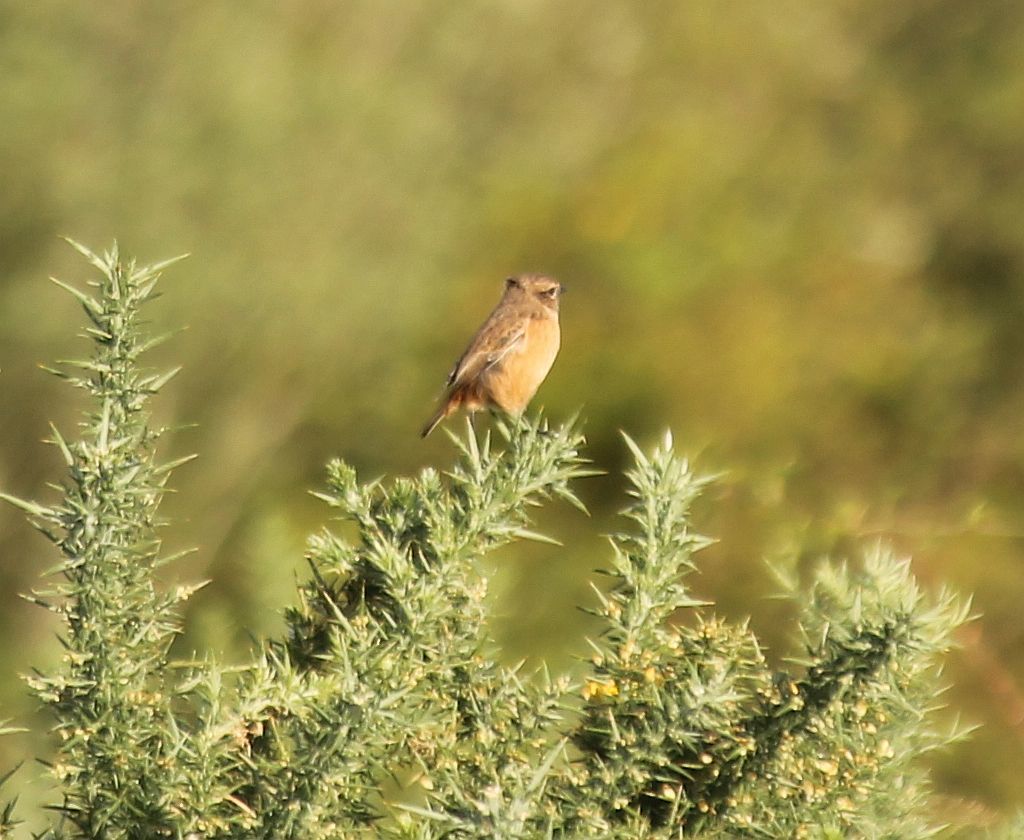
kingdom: Animalia
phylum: Chordata
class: Aves
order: Passeriformes
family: Muscicapidae
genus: Saxicola
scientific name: Saxicola rubicola
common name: European stonechat
